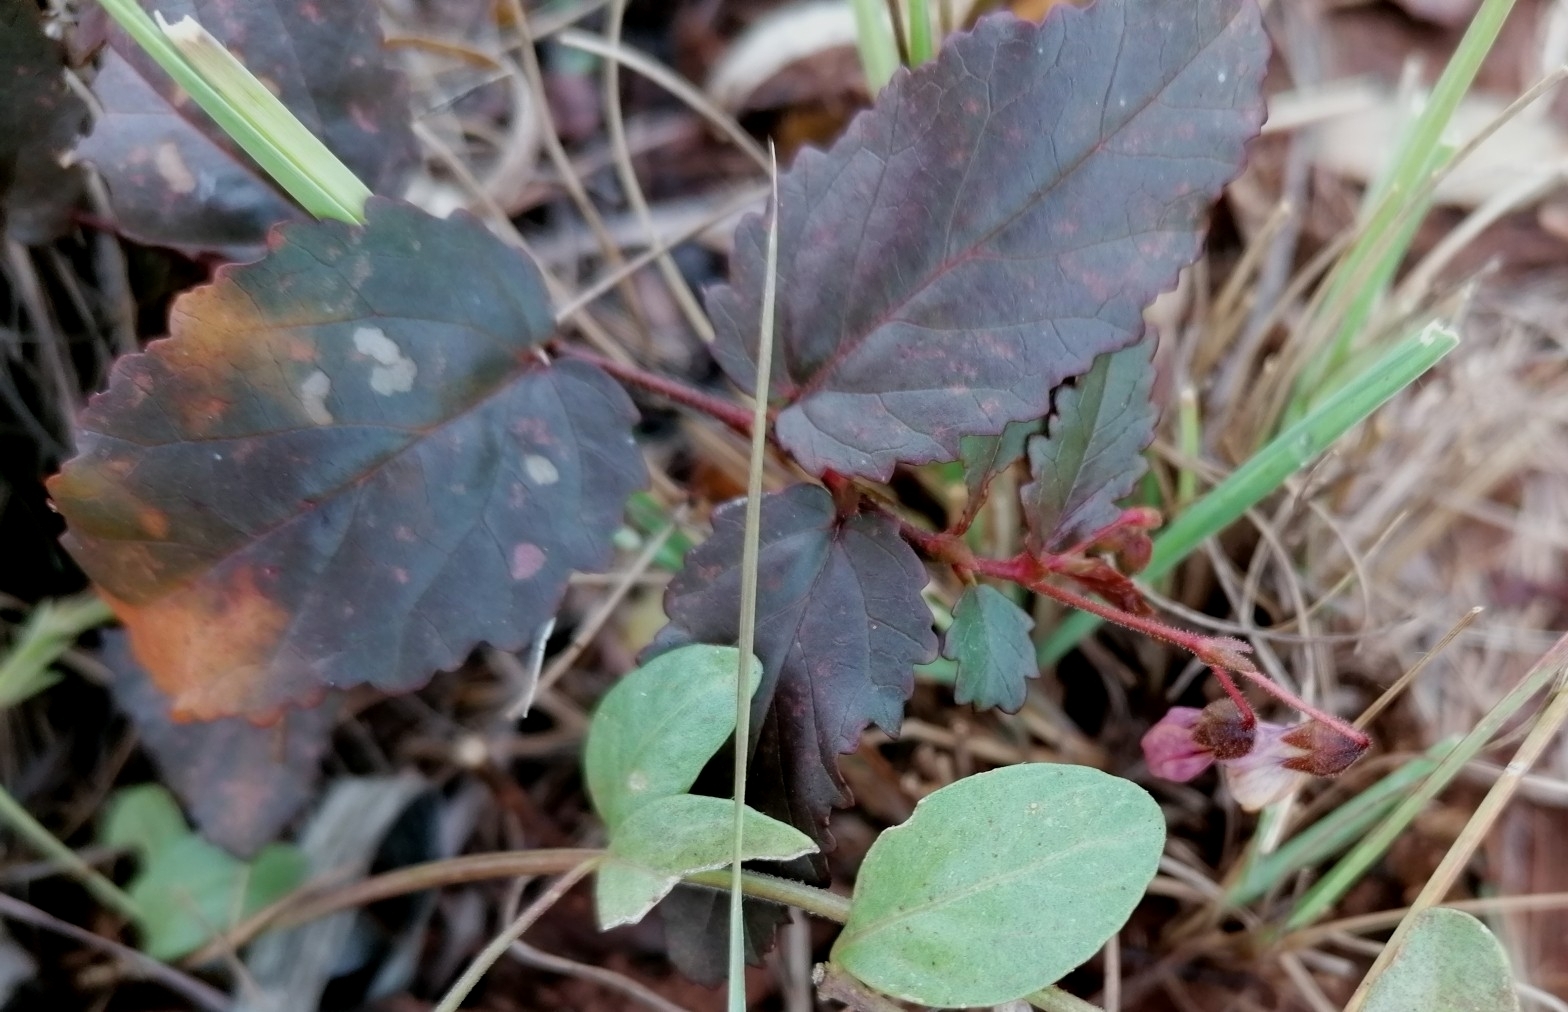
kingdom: Plantae
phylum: Tracheophyta
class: Magnoliopsida
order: Malvales
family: Malvaceae
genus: Hermannia
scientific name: Hermannia depressa
